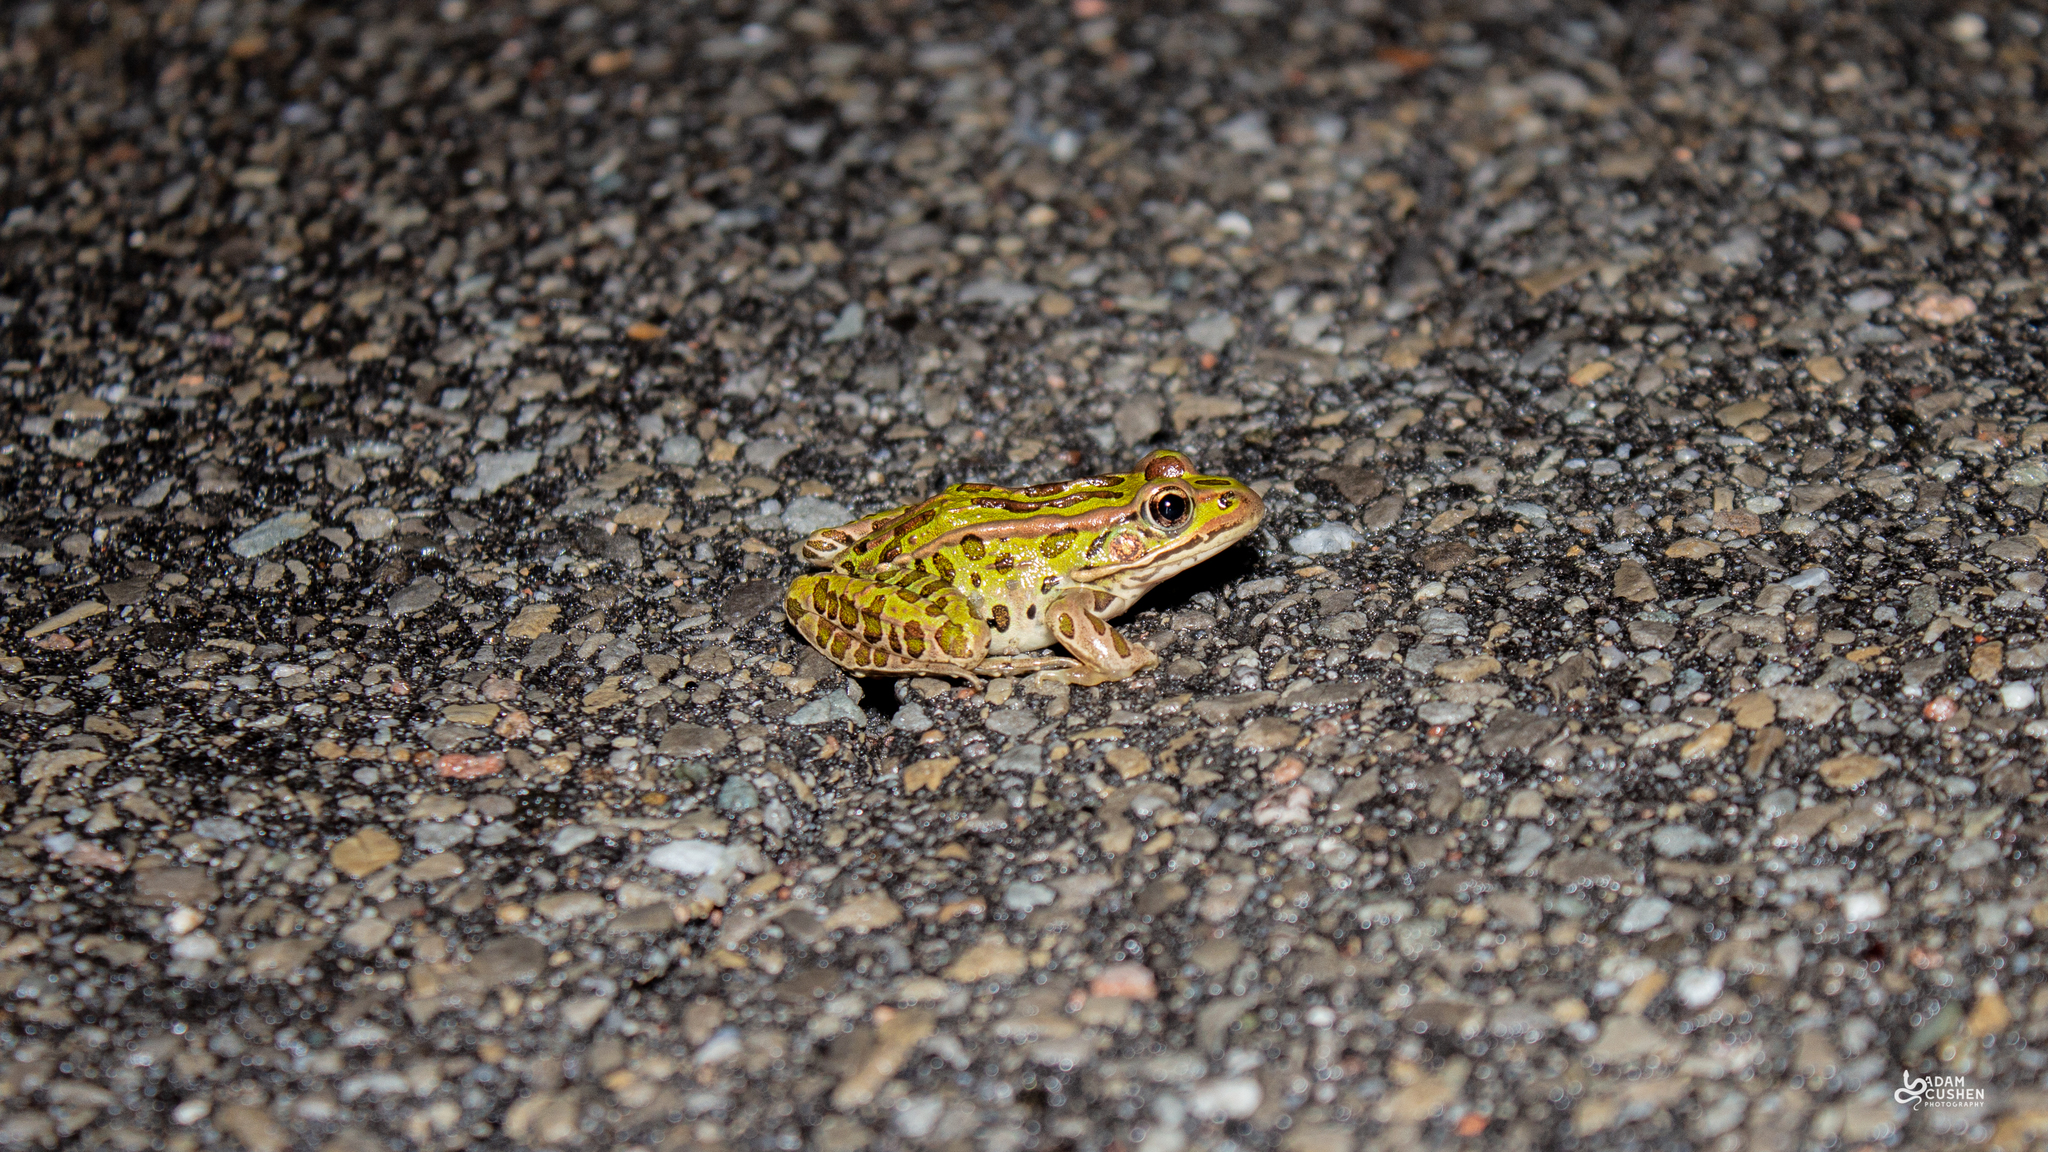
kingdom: Animalia
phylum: Chordata
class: Amphibia
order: Anura
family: Ranidae
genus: Lithobates
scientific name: Lithobates pipiens
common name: Northern leopard frog
